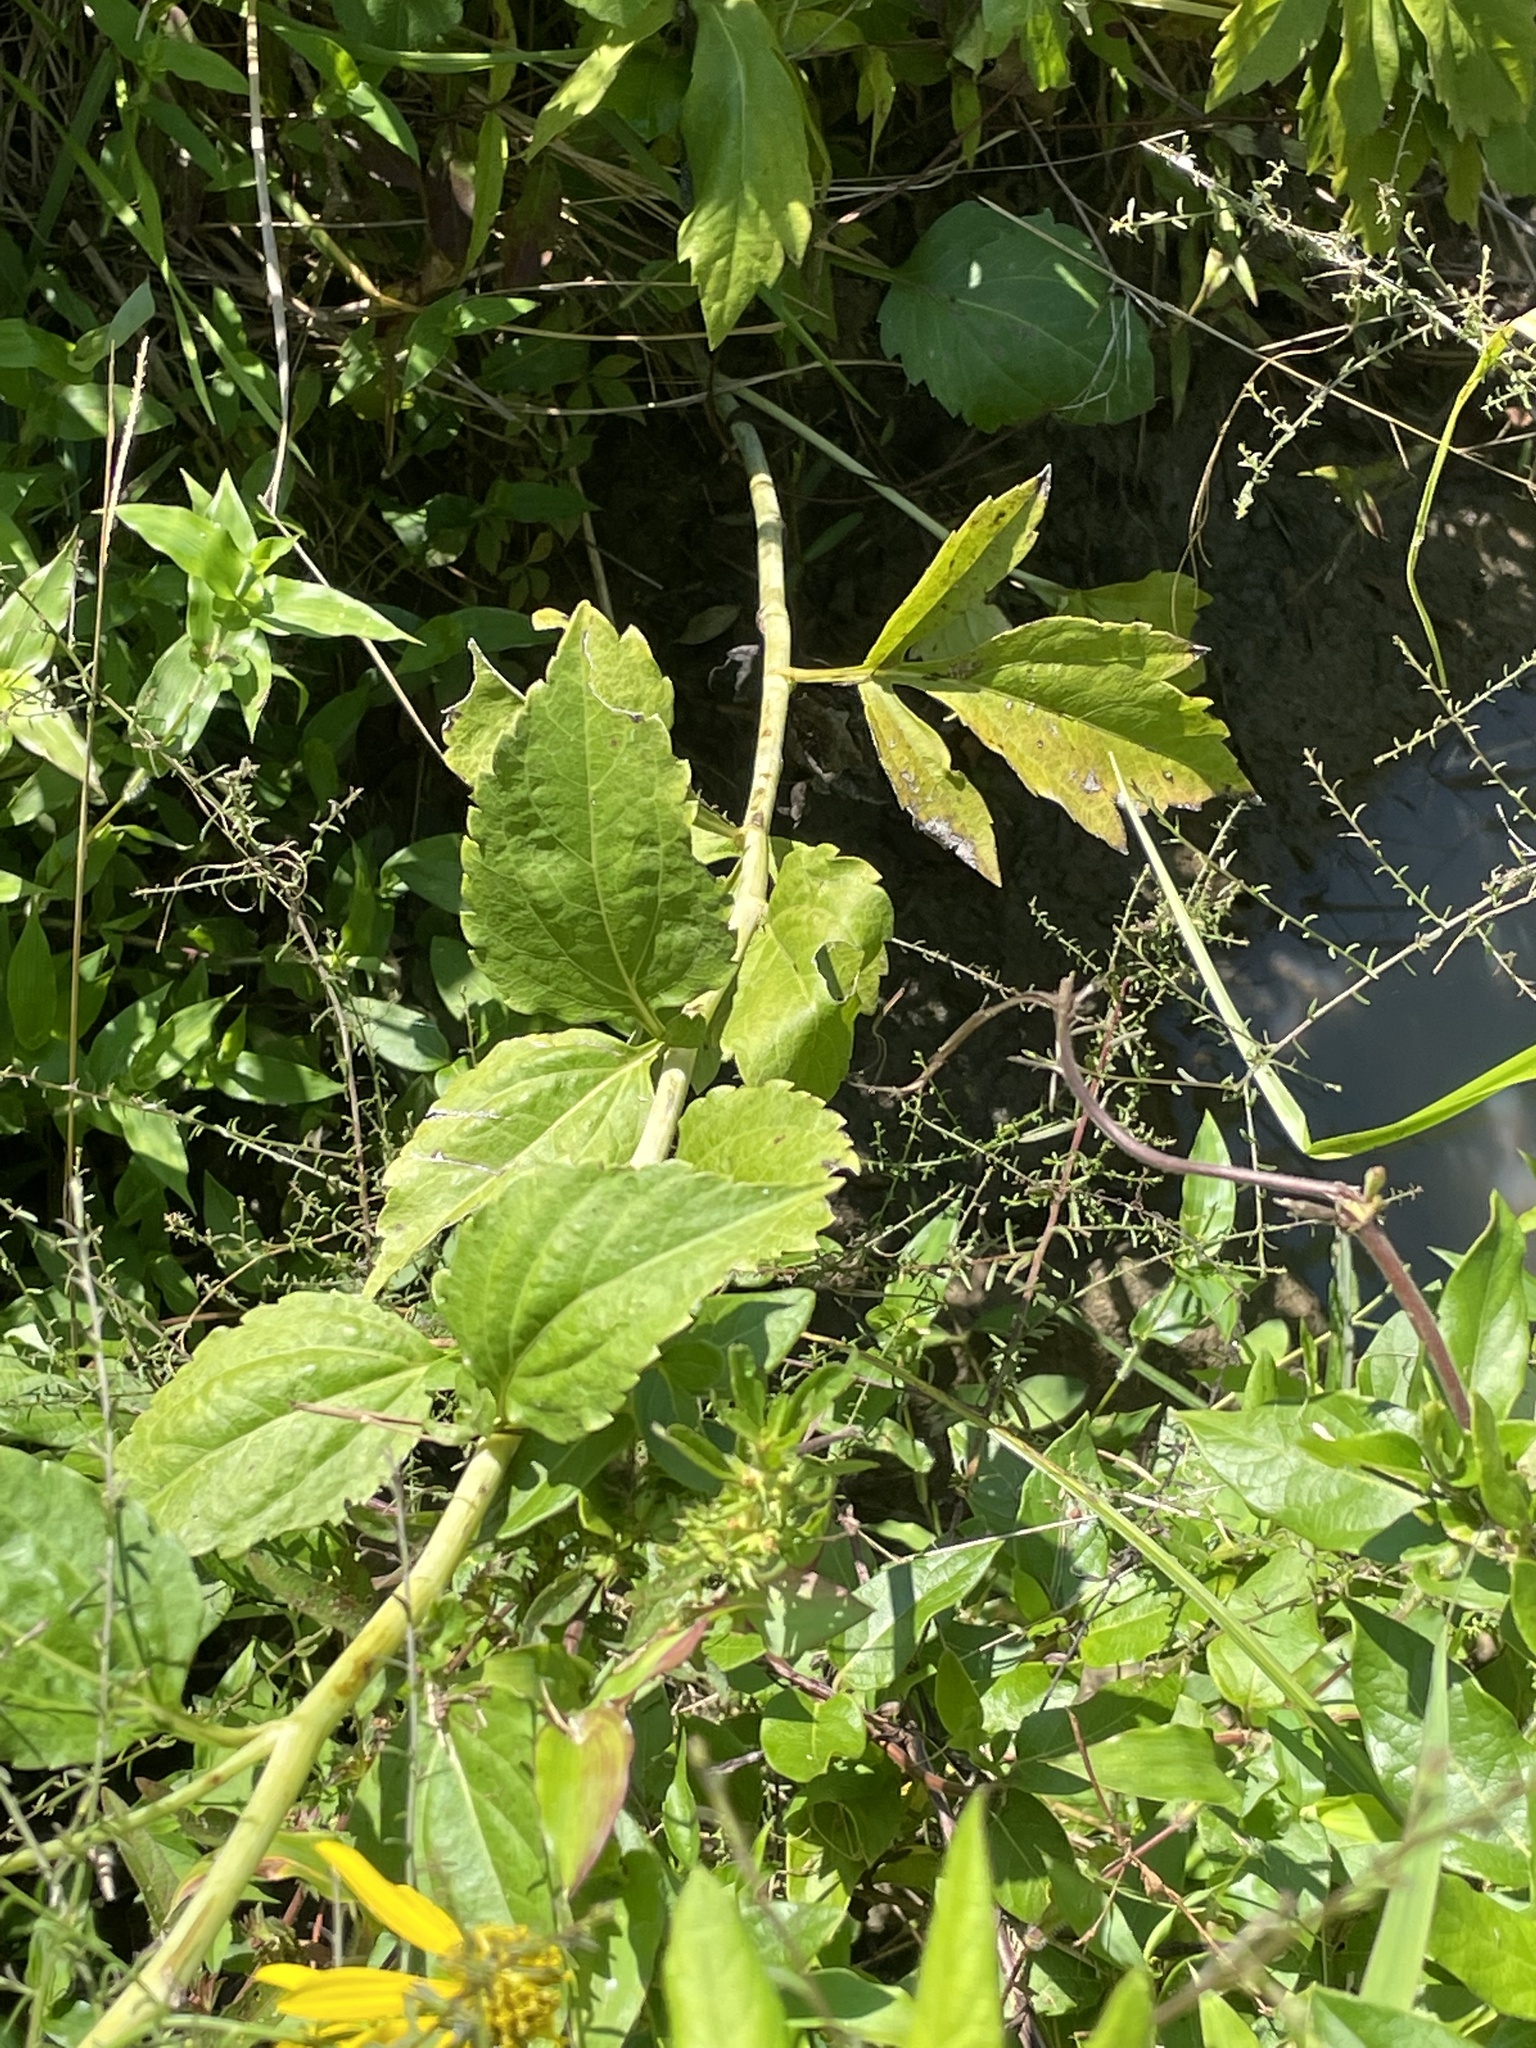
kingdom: Plantae
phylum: Tracheophyta
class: Magnoliopsida
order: Asterales
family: Asteraceae
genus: Rudbeckia
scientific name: Rudbeckia laciniata
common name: Coneflower
